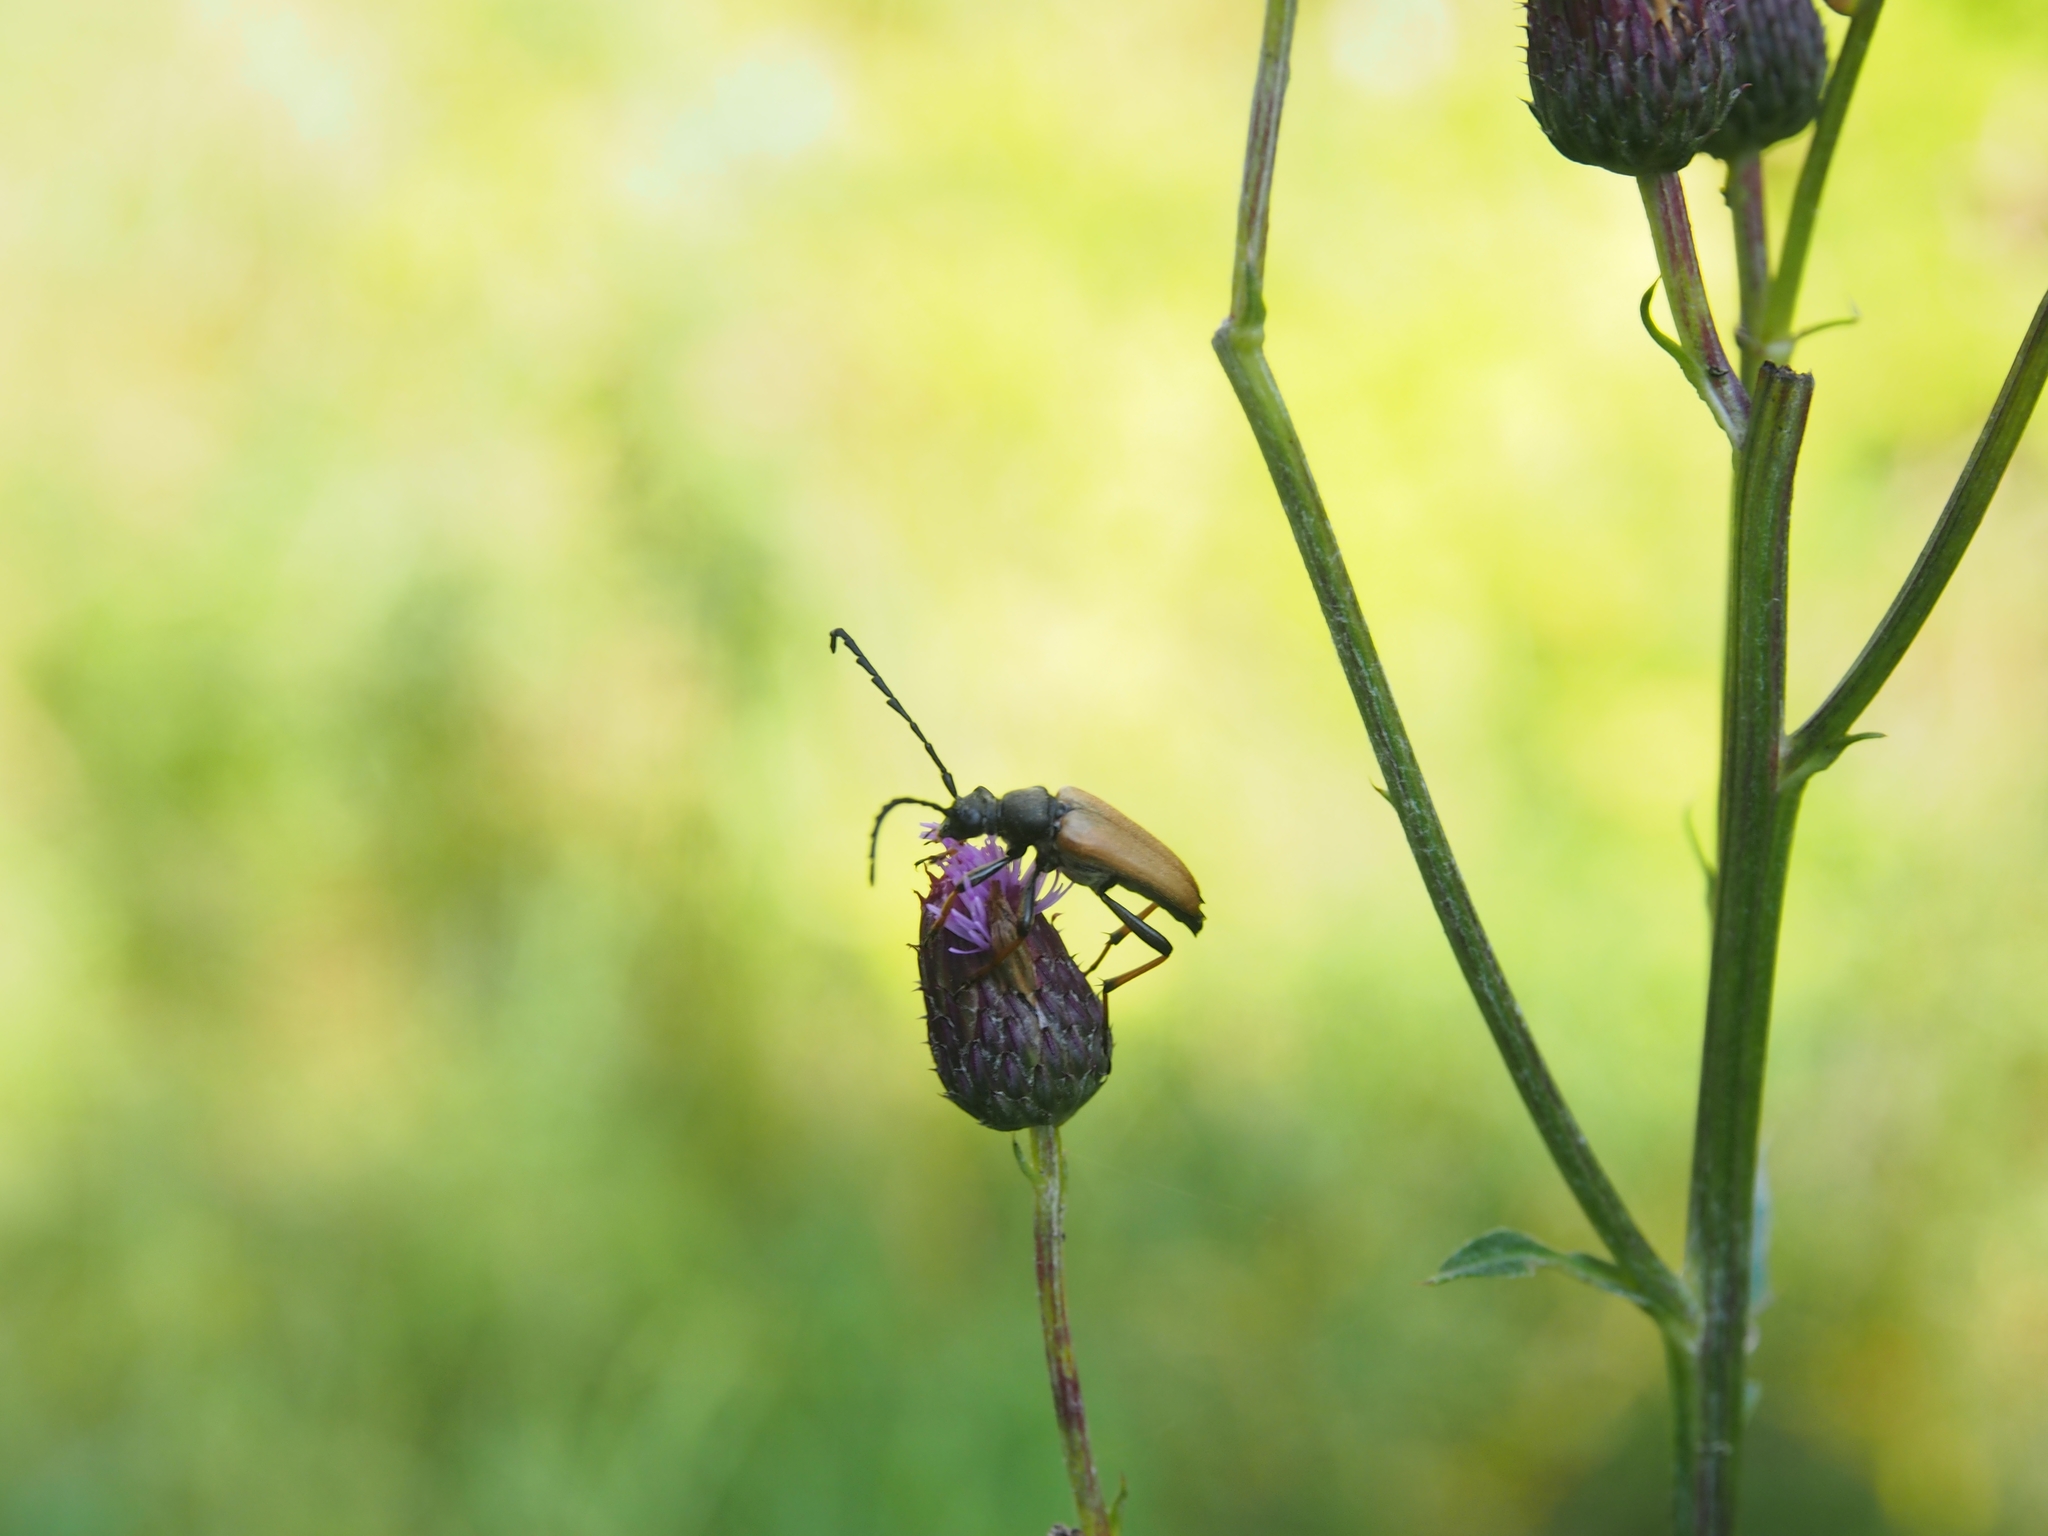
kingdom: Animalia
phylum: Arthropoda
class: Insecta
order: Coleoptera
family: Cerambycidae
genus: Stictoleptura
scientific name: Stictoleptura rubra
